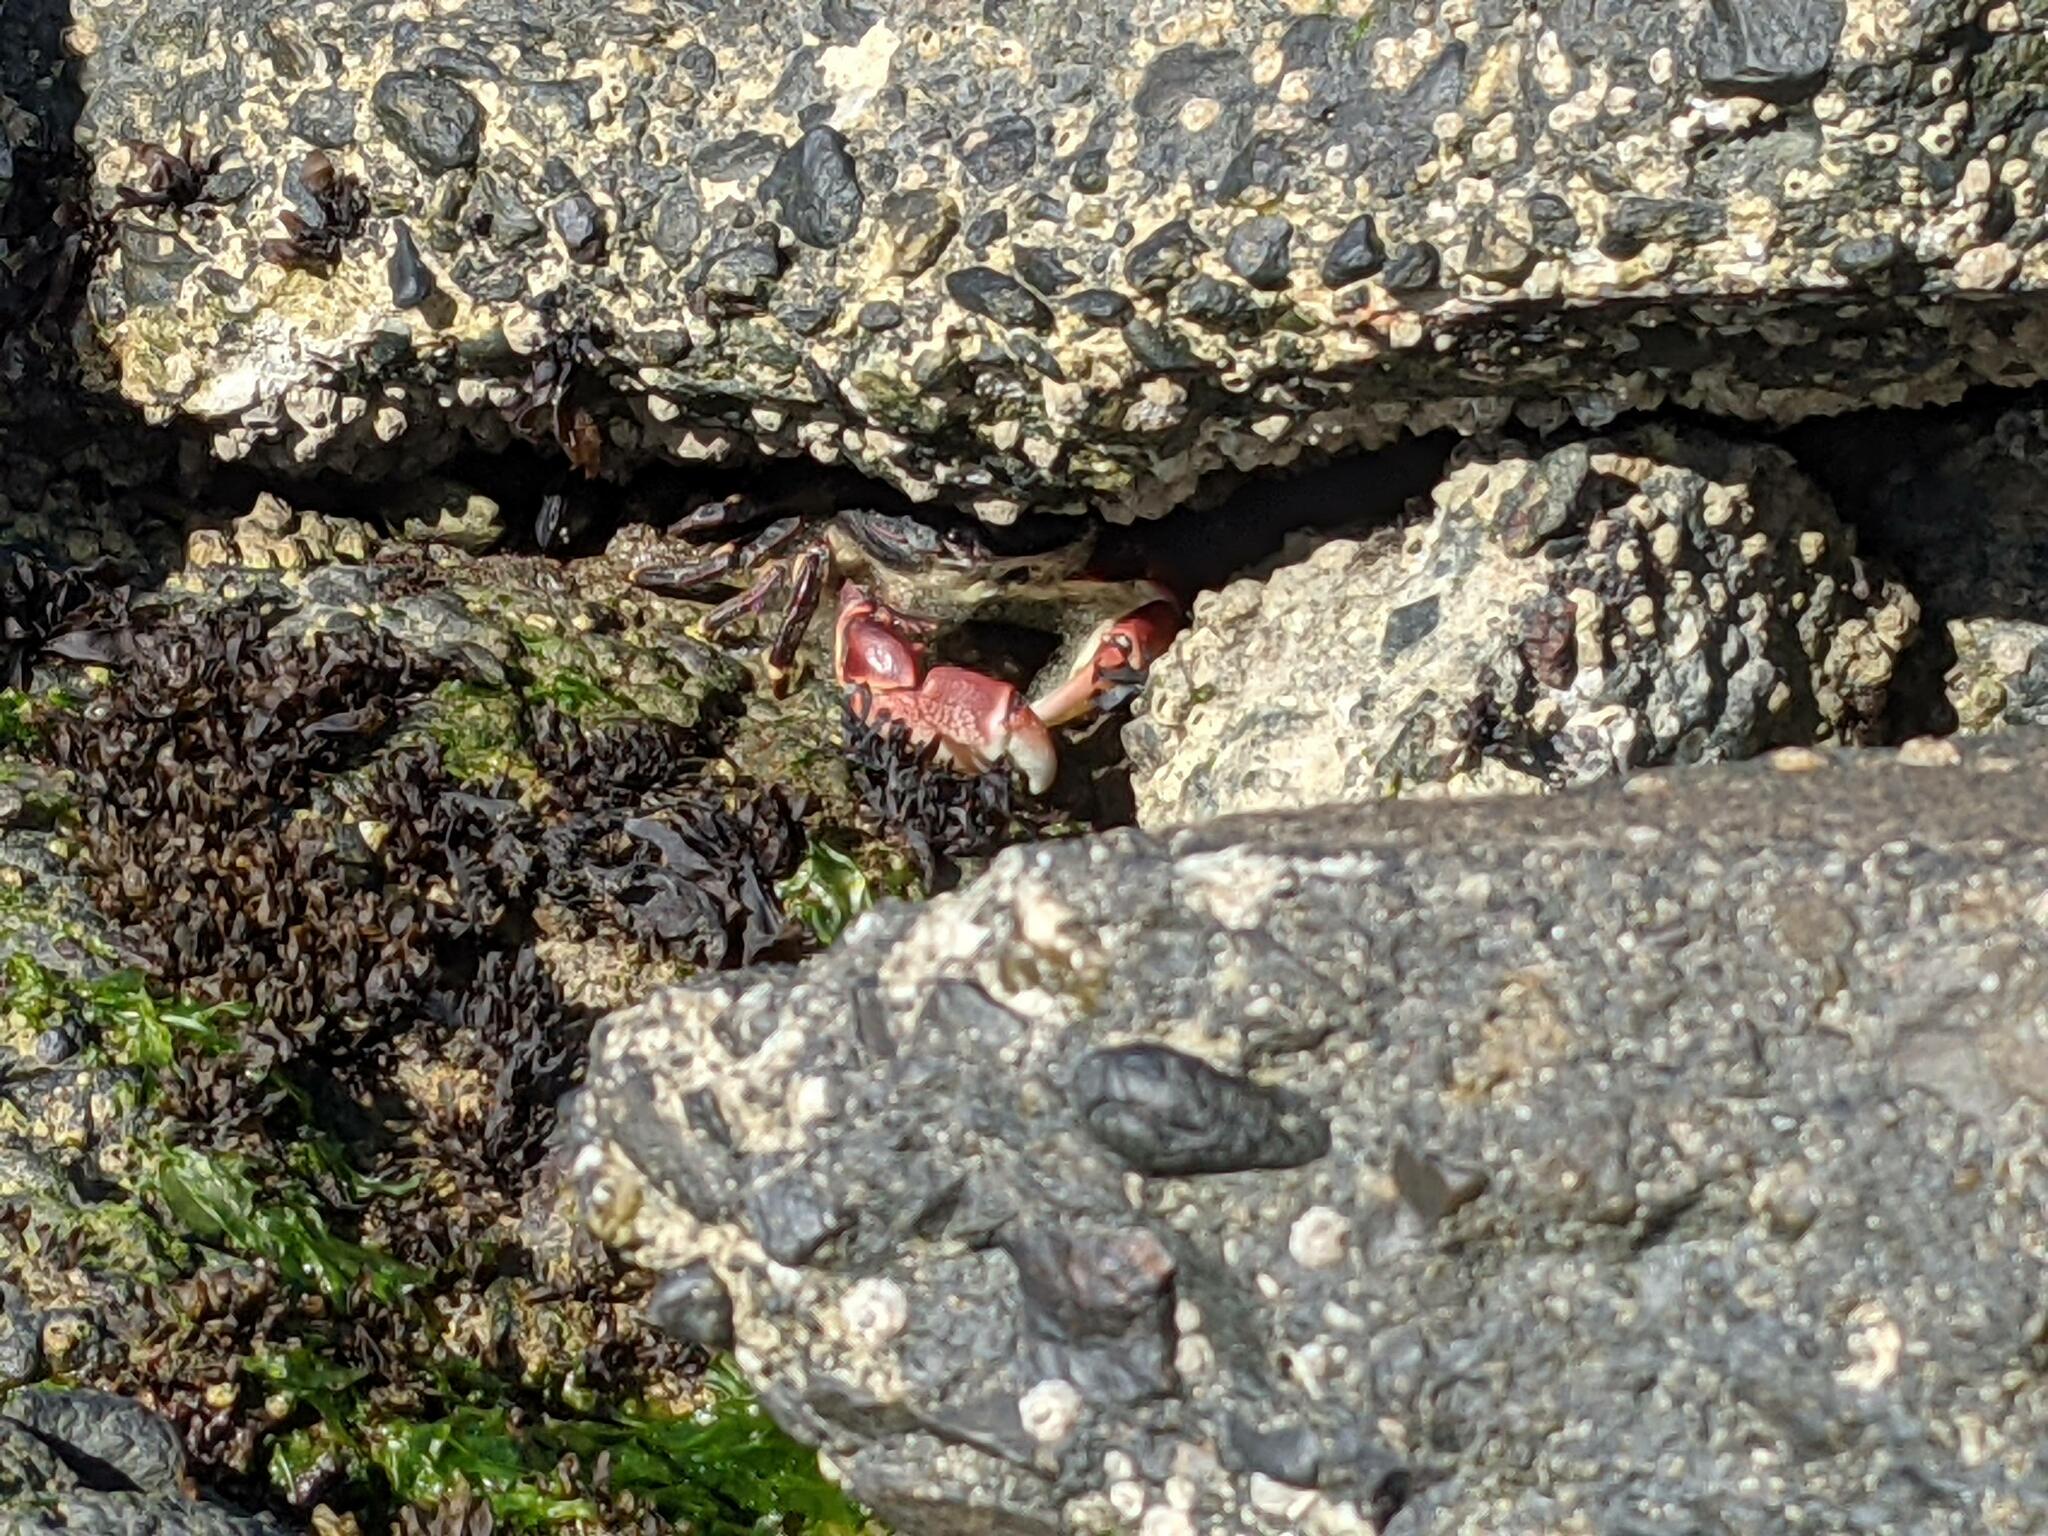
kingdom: Animalia
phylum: Arthropoda
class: Malacostraca
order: Decapoda
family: Grapsidae
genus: Pachygrapsus
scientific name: Pachygrapsus crassipes
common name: Striped shore crab
